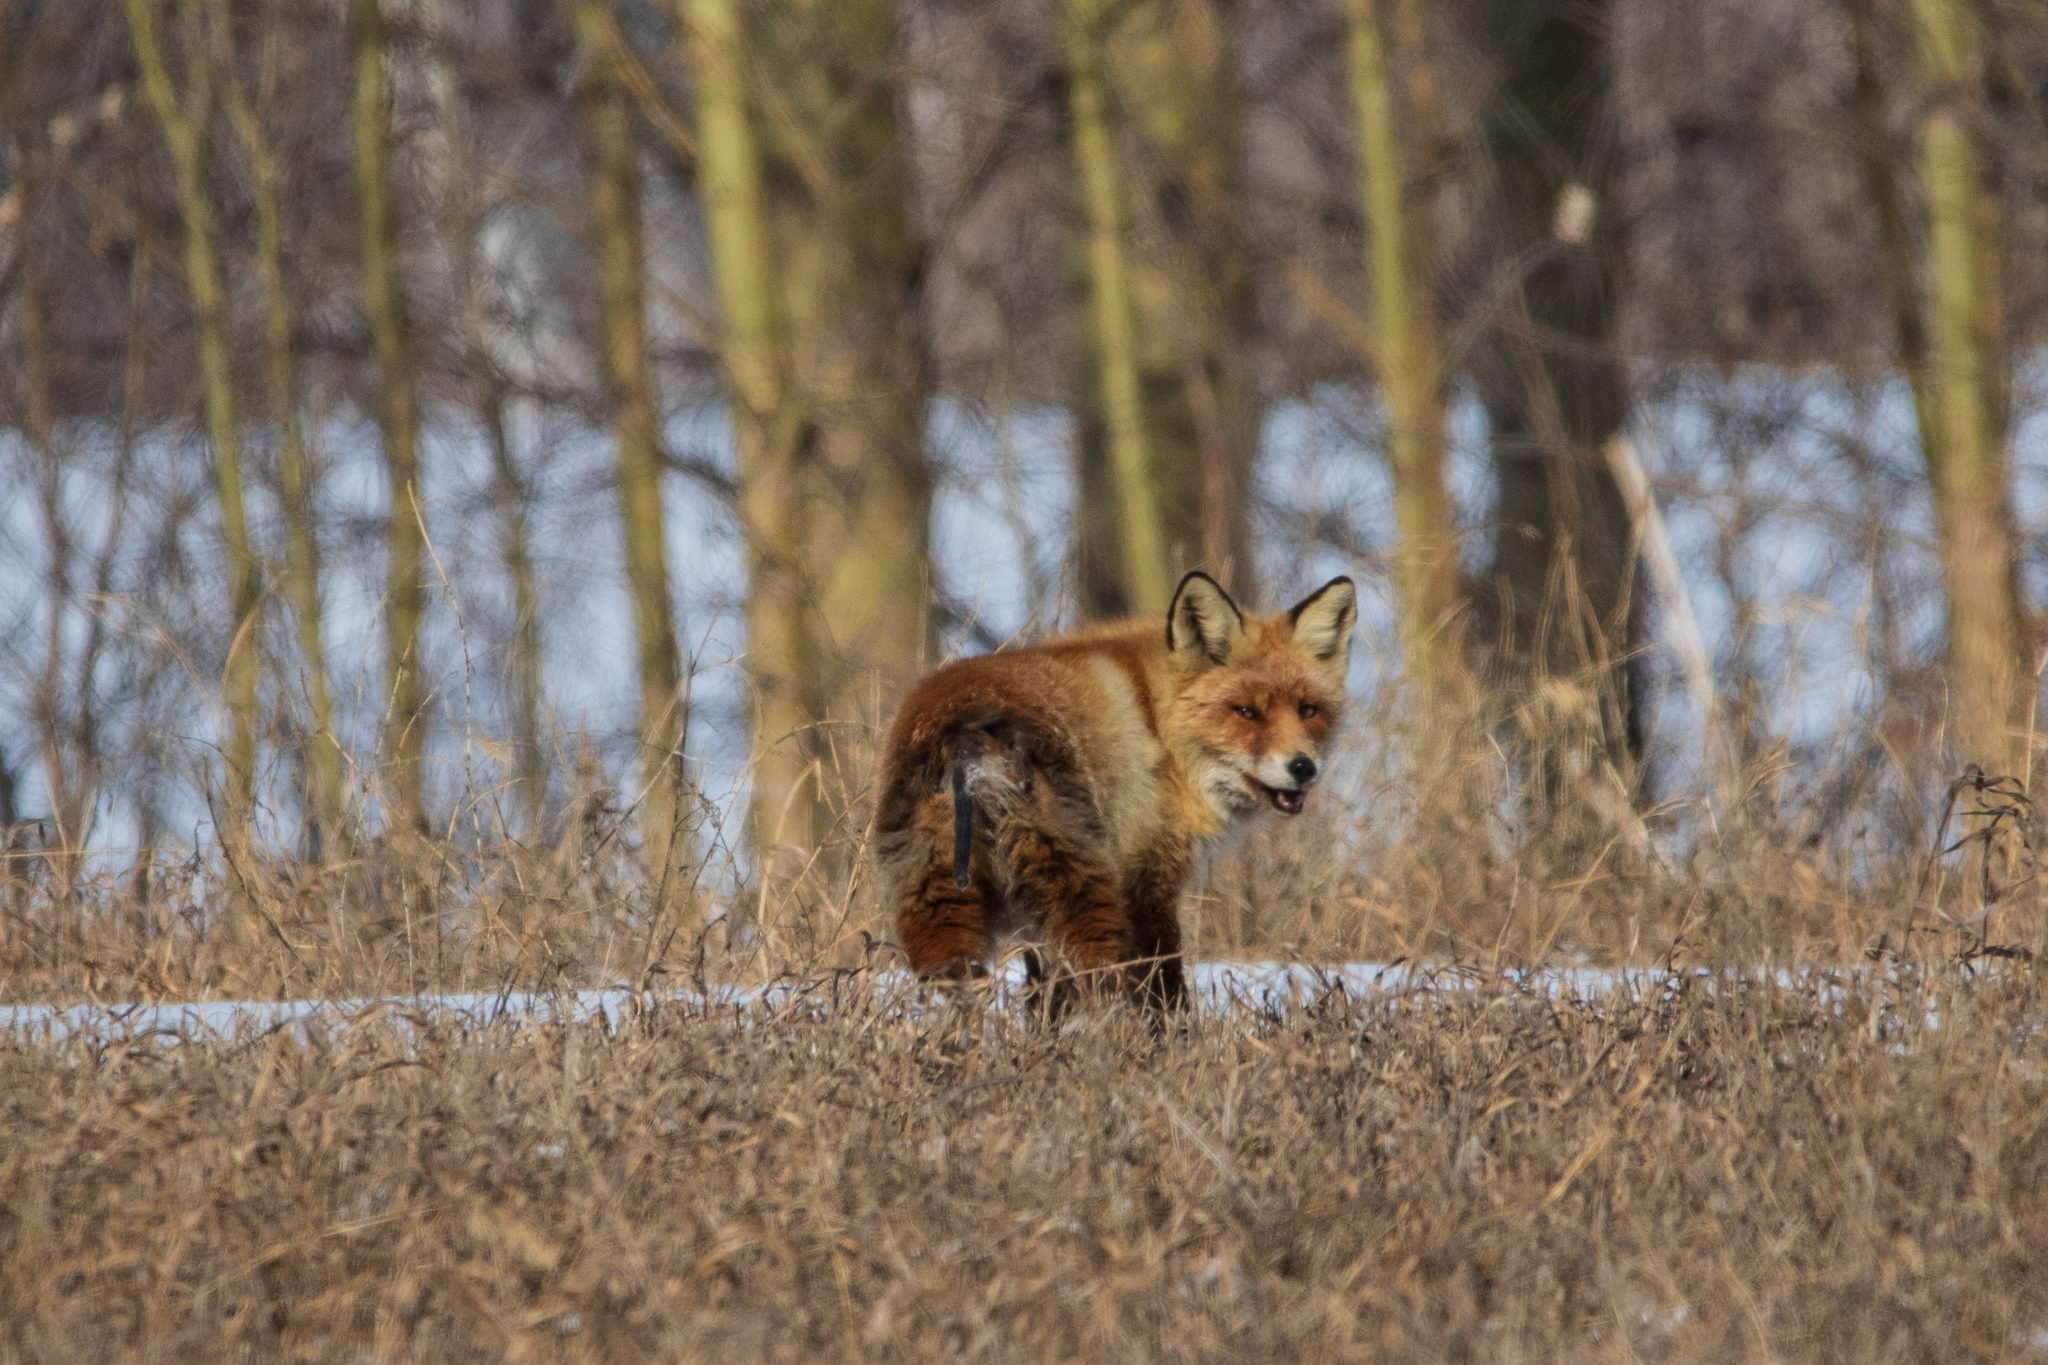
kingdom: Animalia
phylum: Chordata
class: Mammalia
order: Carnivora
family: Canidae
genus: Vulpes
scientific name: Vulpes vulpes
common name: Red fox
